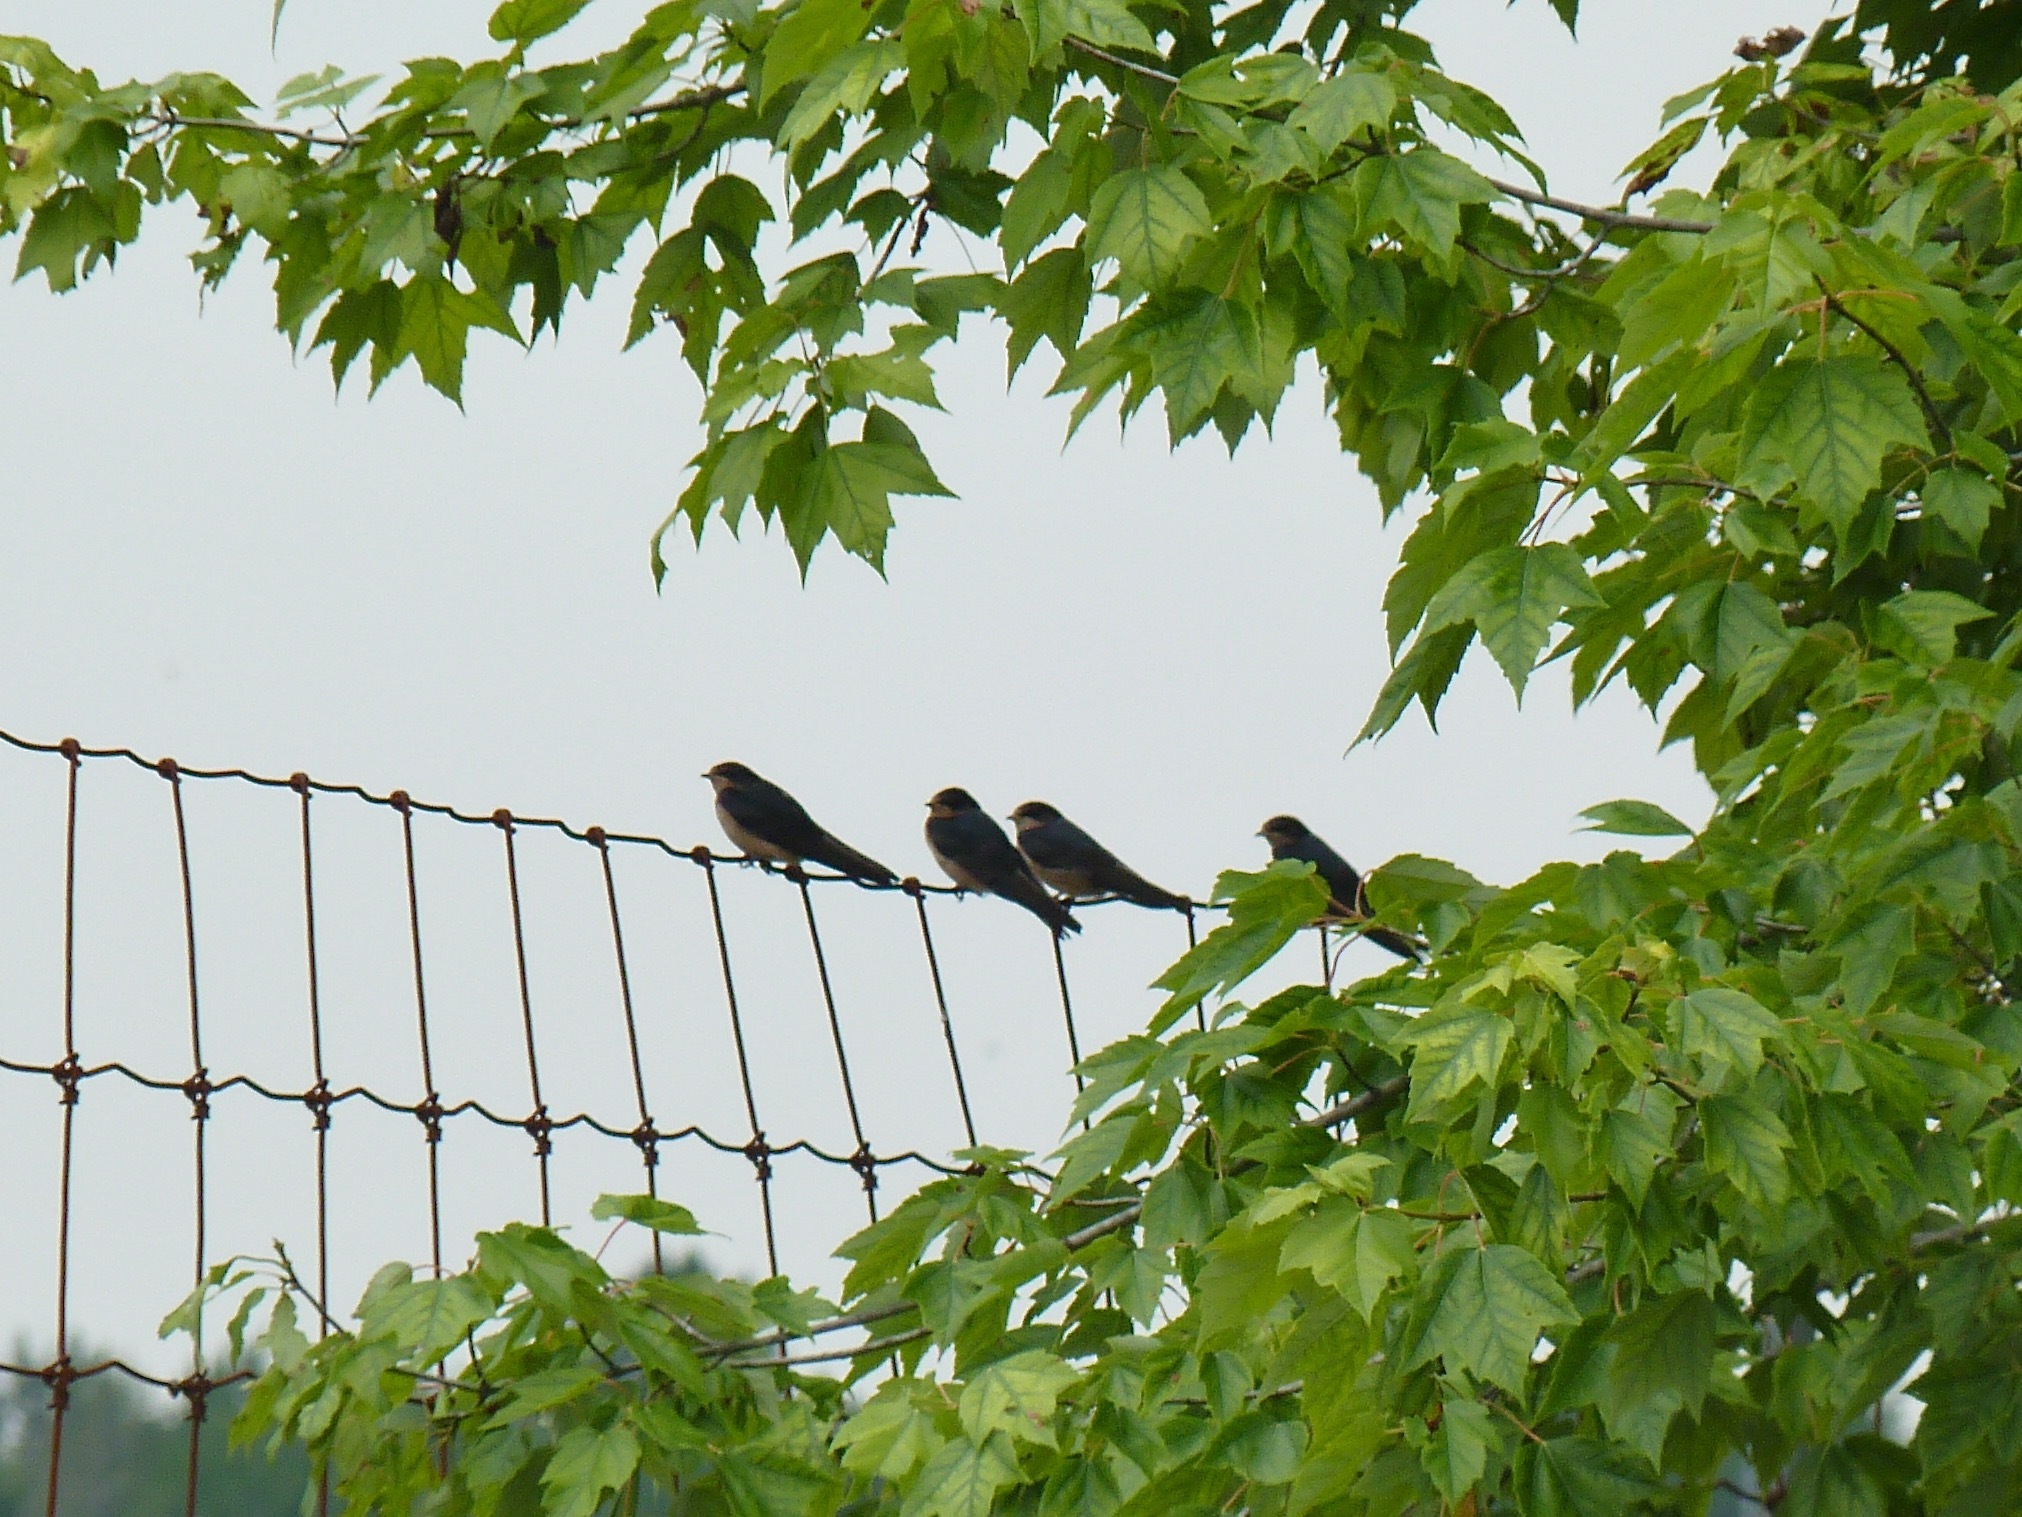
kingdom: Animalia
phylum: Chordata
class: Aves
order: Passeriformes
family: Hirundinidae
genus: Hirundo
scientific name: Hirundo rustica
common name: Barn swallow
